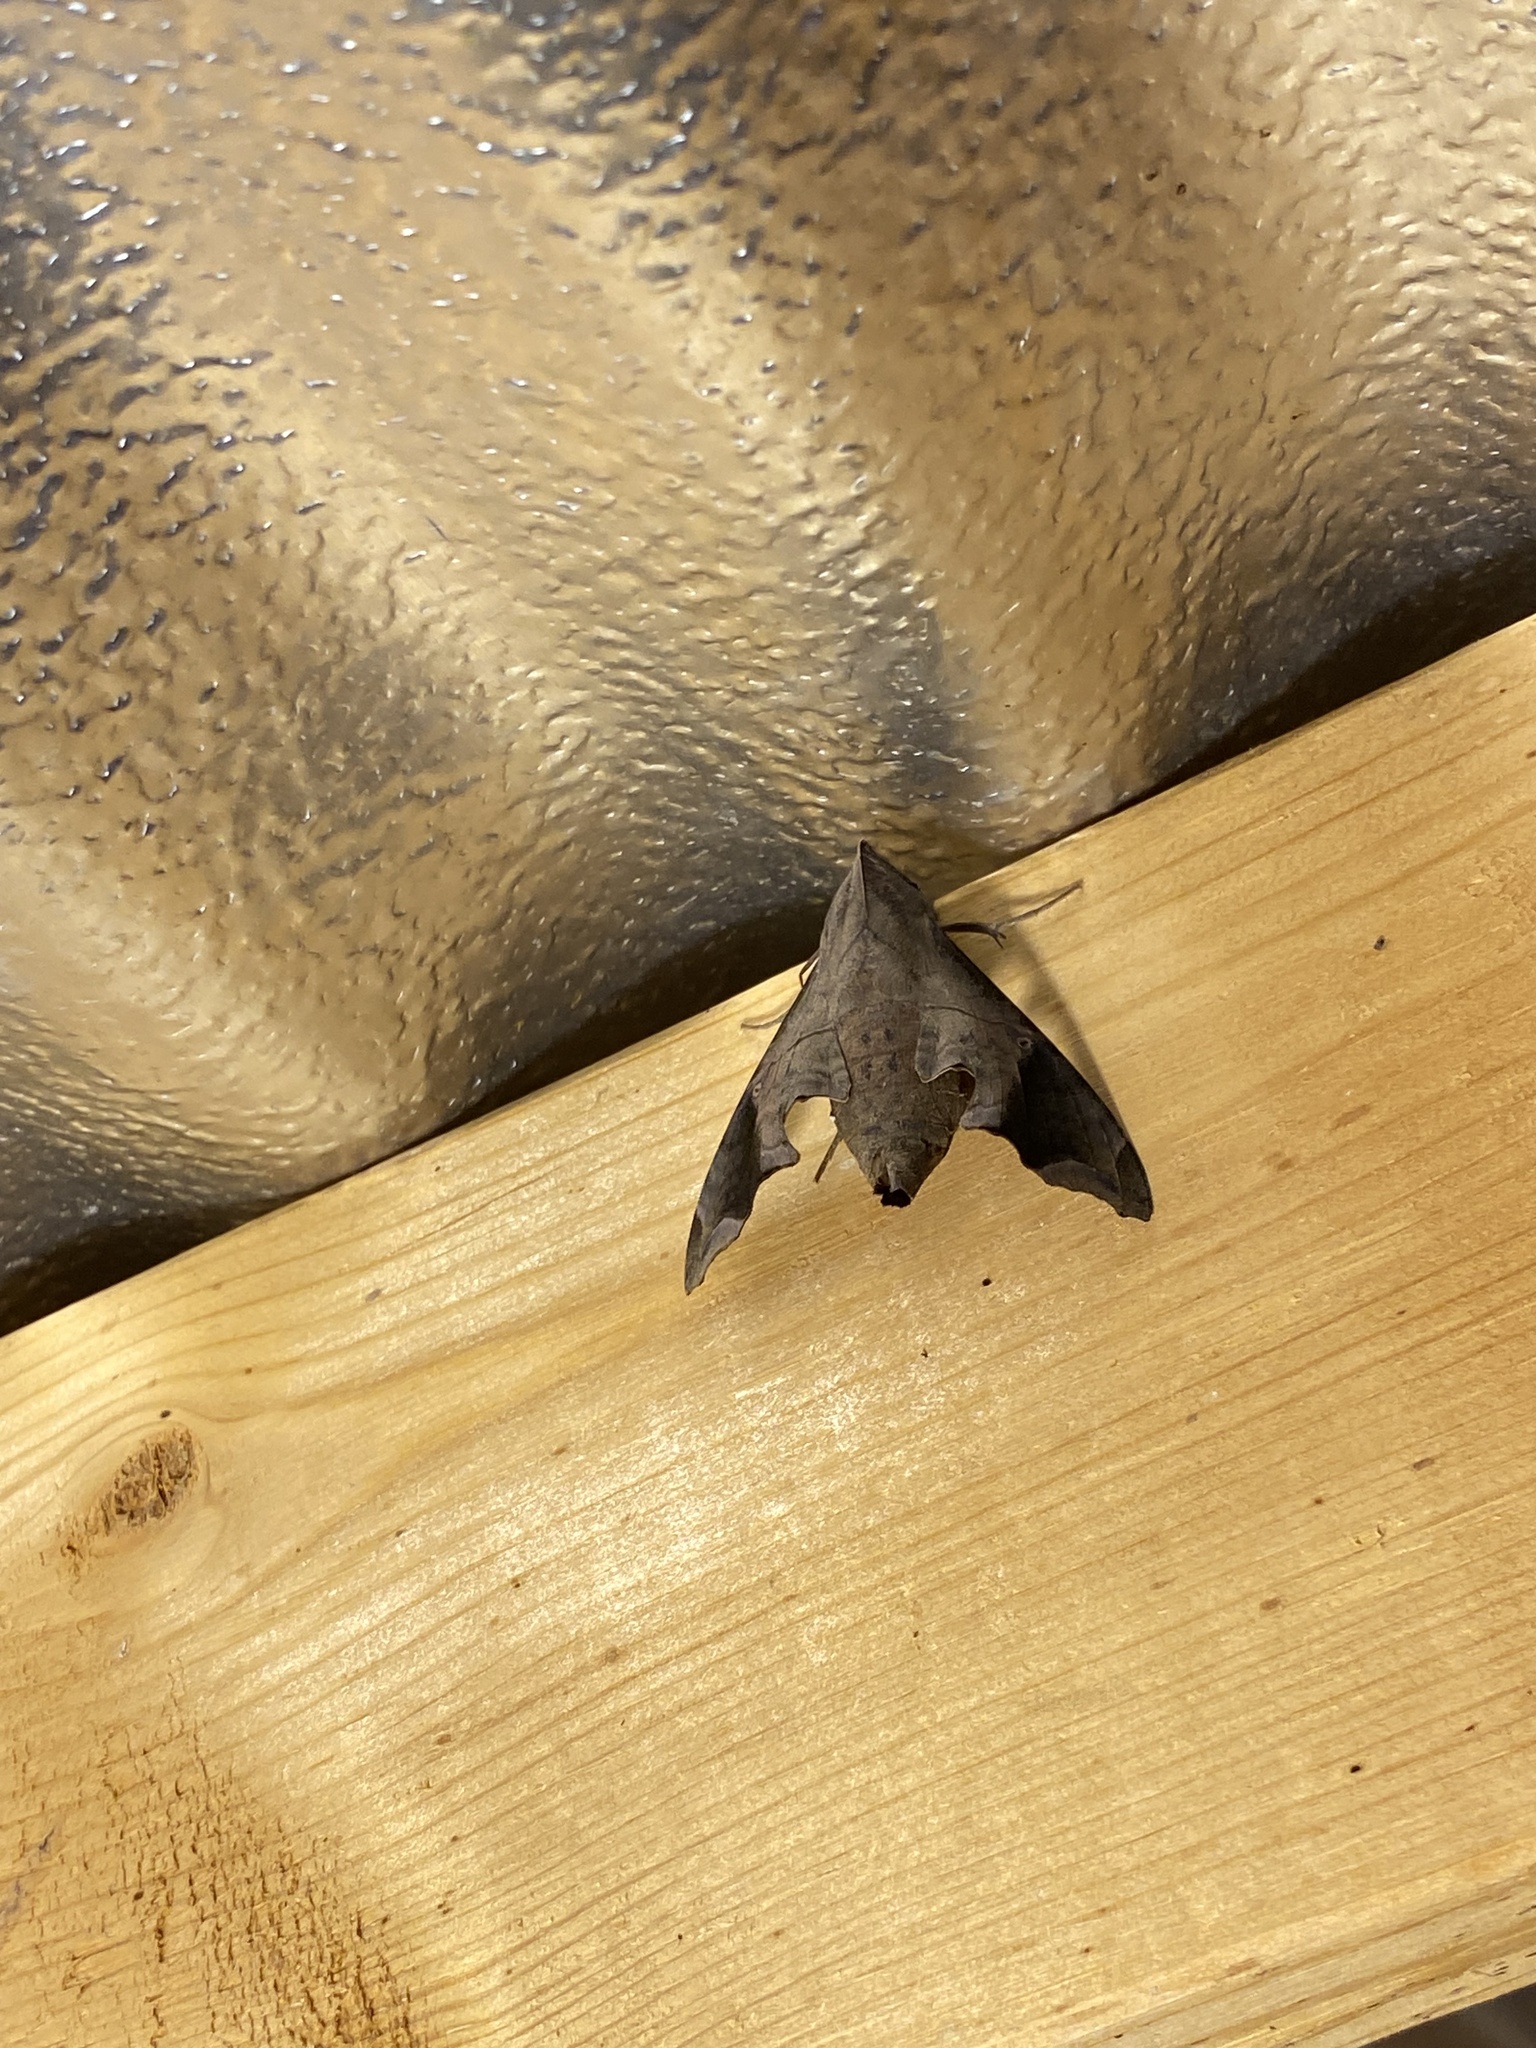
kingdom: Animalia
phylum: Arthropoda
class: Insecta
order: Lepidoptera
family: Sphingidae
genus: Enyo
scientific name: Enyo lugubris
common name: Mournful sphinx
